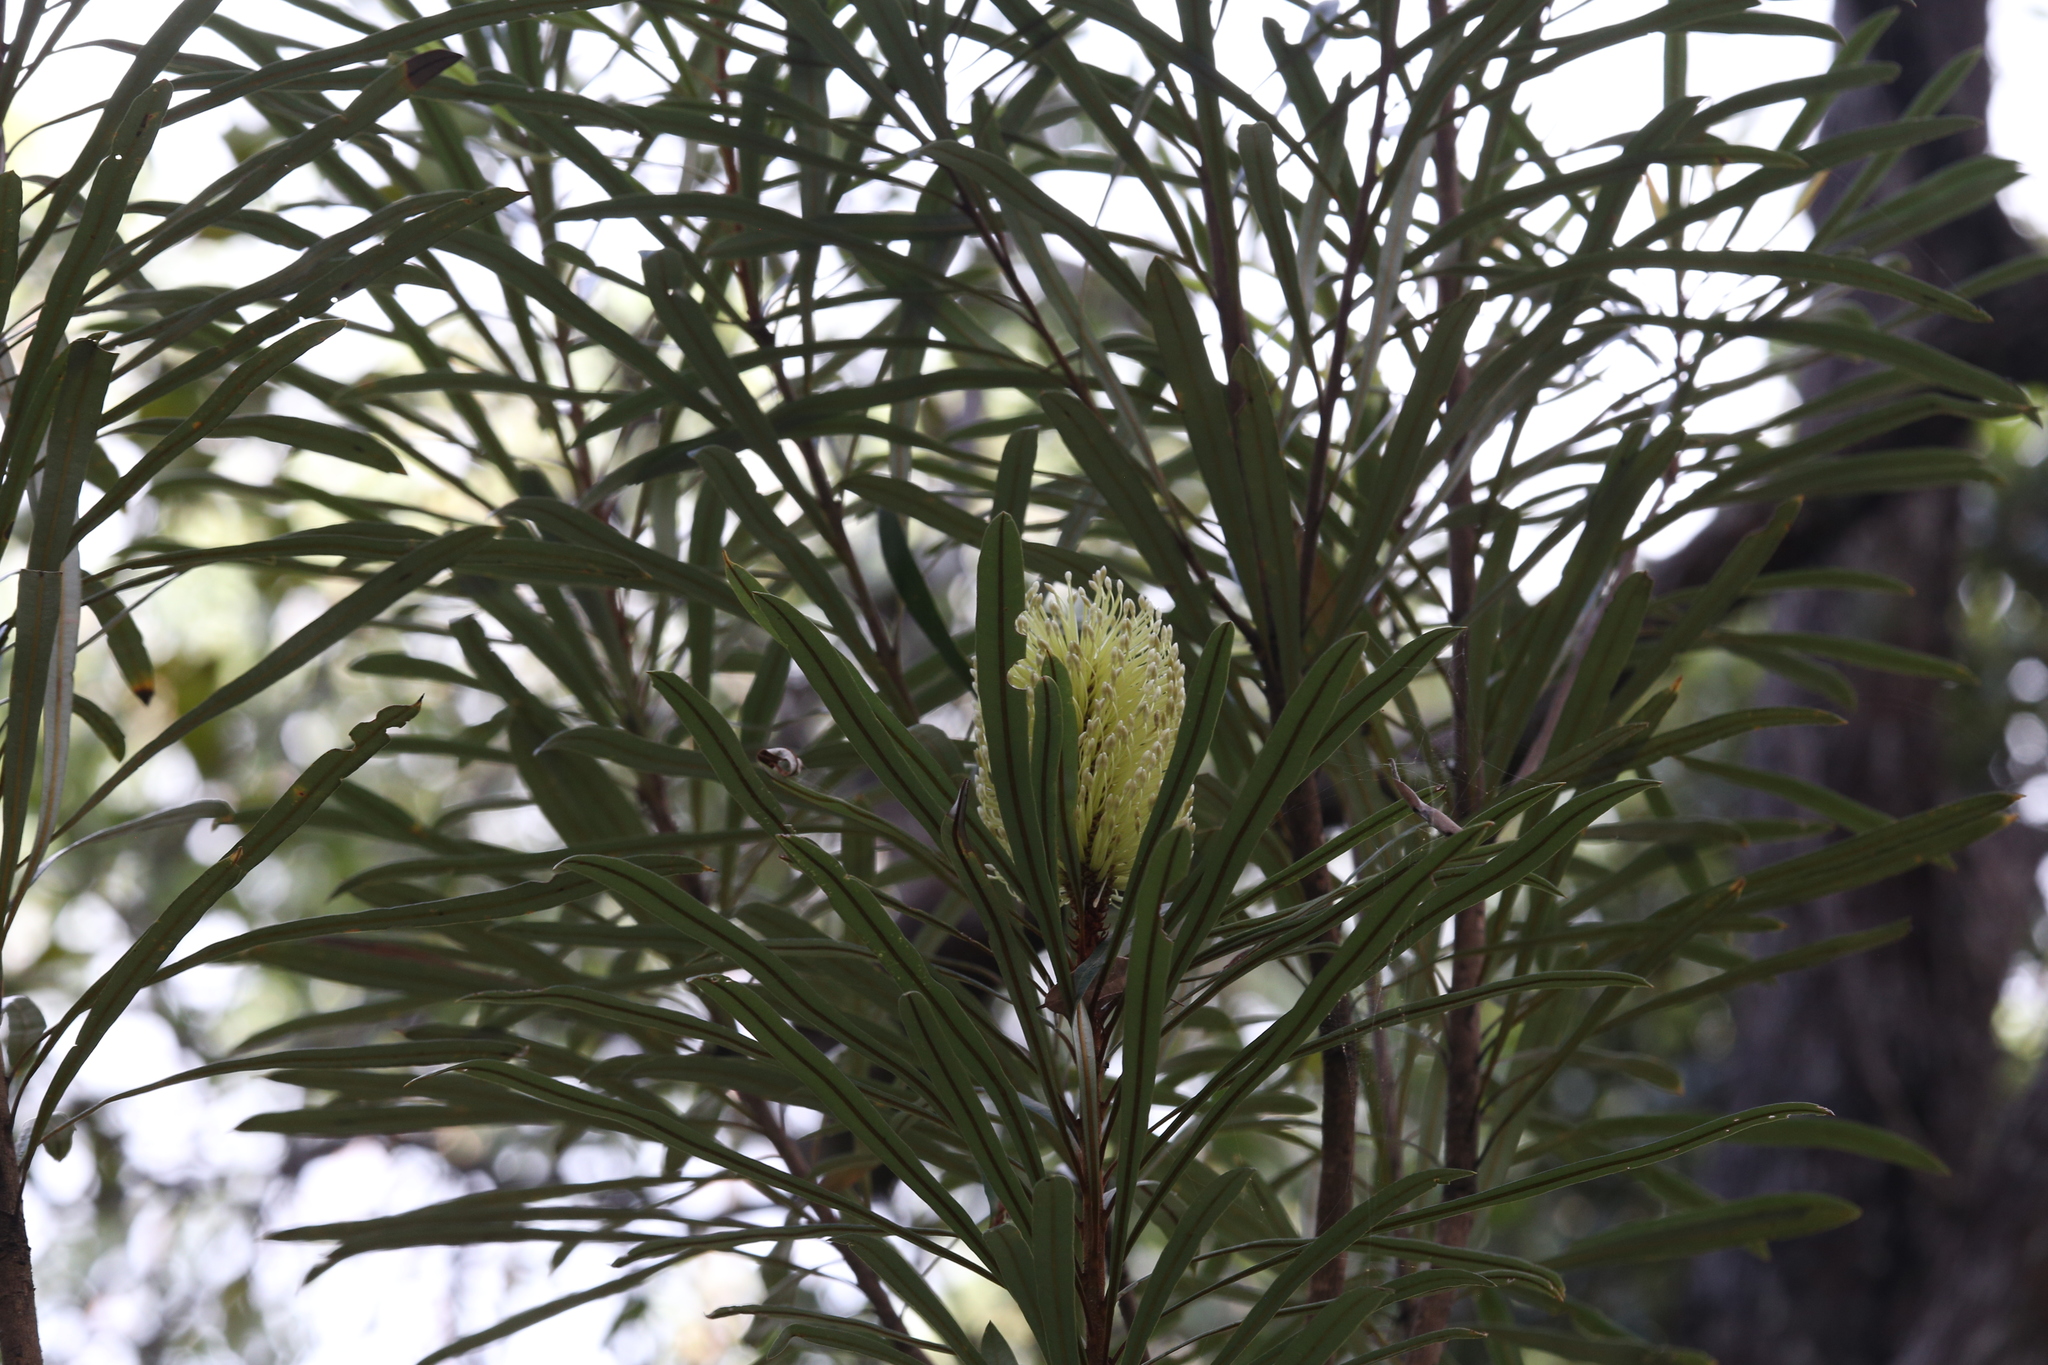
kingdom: Plantae
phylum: Tracheophyta
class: Magnoliopsida
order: Proteales
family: Proteaceae
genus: Banksia
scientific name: Banksia aquilonia
